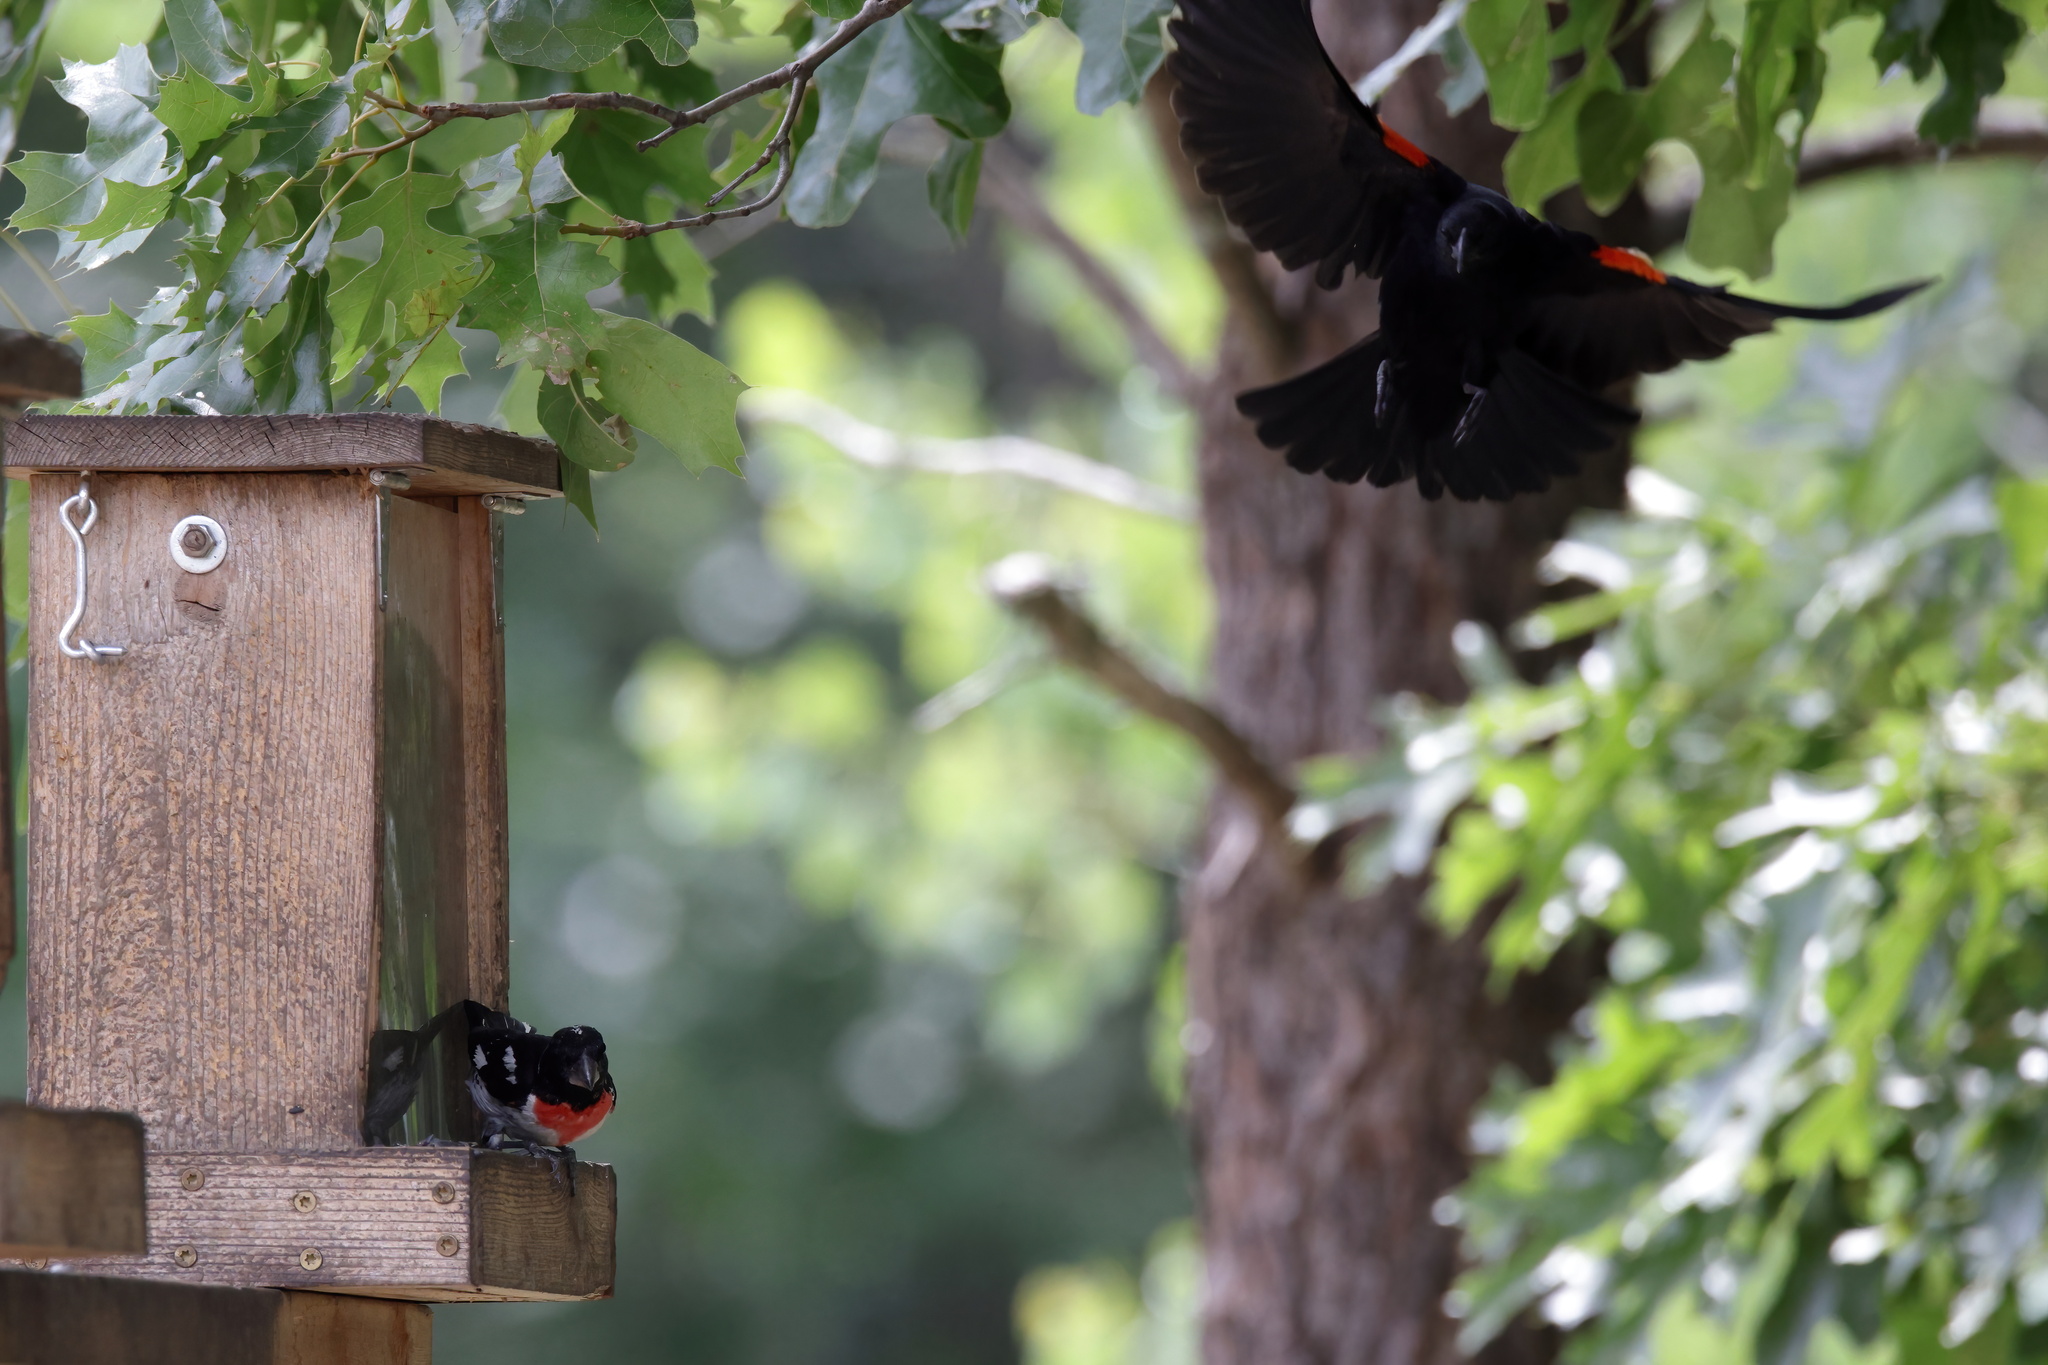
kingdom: Animalia
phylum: Chordata
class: Aves
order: Passeriformes
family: Icteridae
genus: Agelaius
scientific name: Agelaius phoeniceus
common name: Red-winged blackbird
